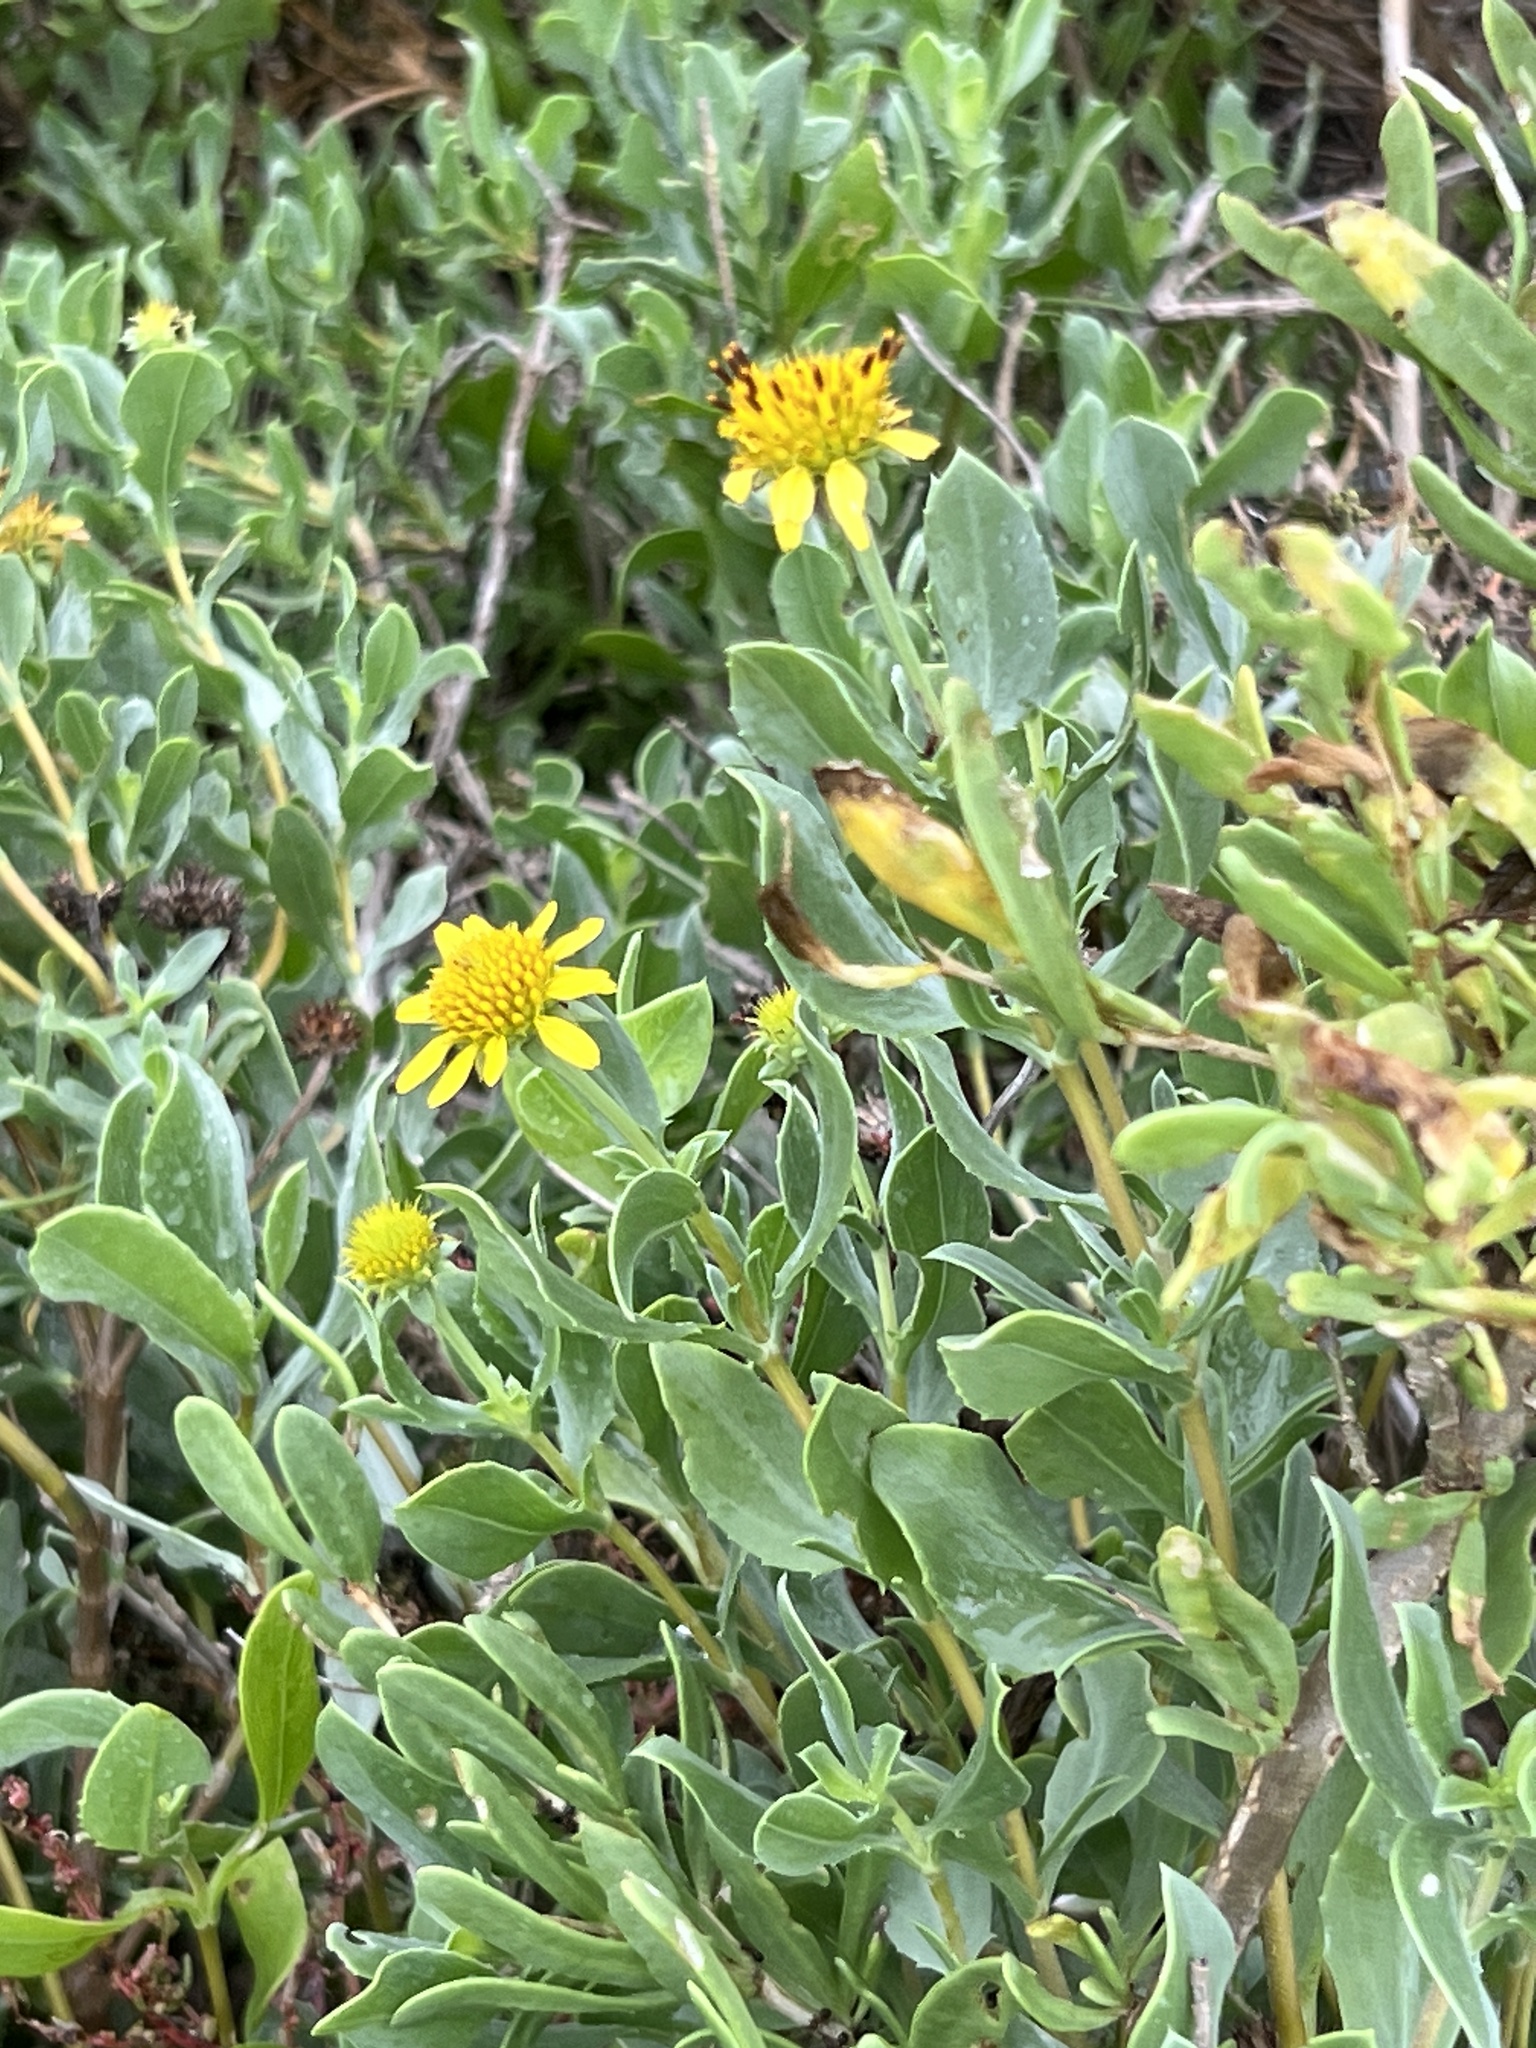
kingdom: Plantae
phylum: Tracheophyta
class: Magnoliopsida
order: Asterales
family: Asteraceae
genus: Borrichia
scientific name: Borrichia frutescens
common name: Sea oxeye
